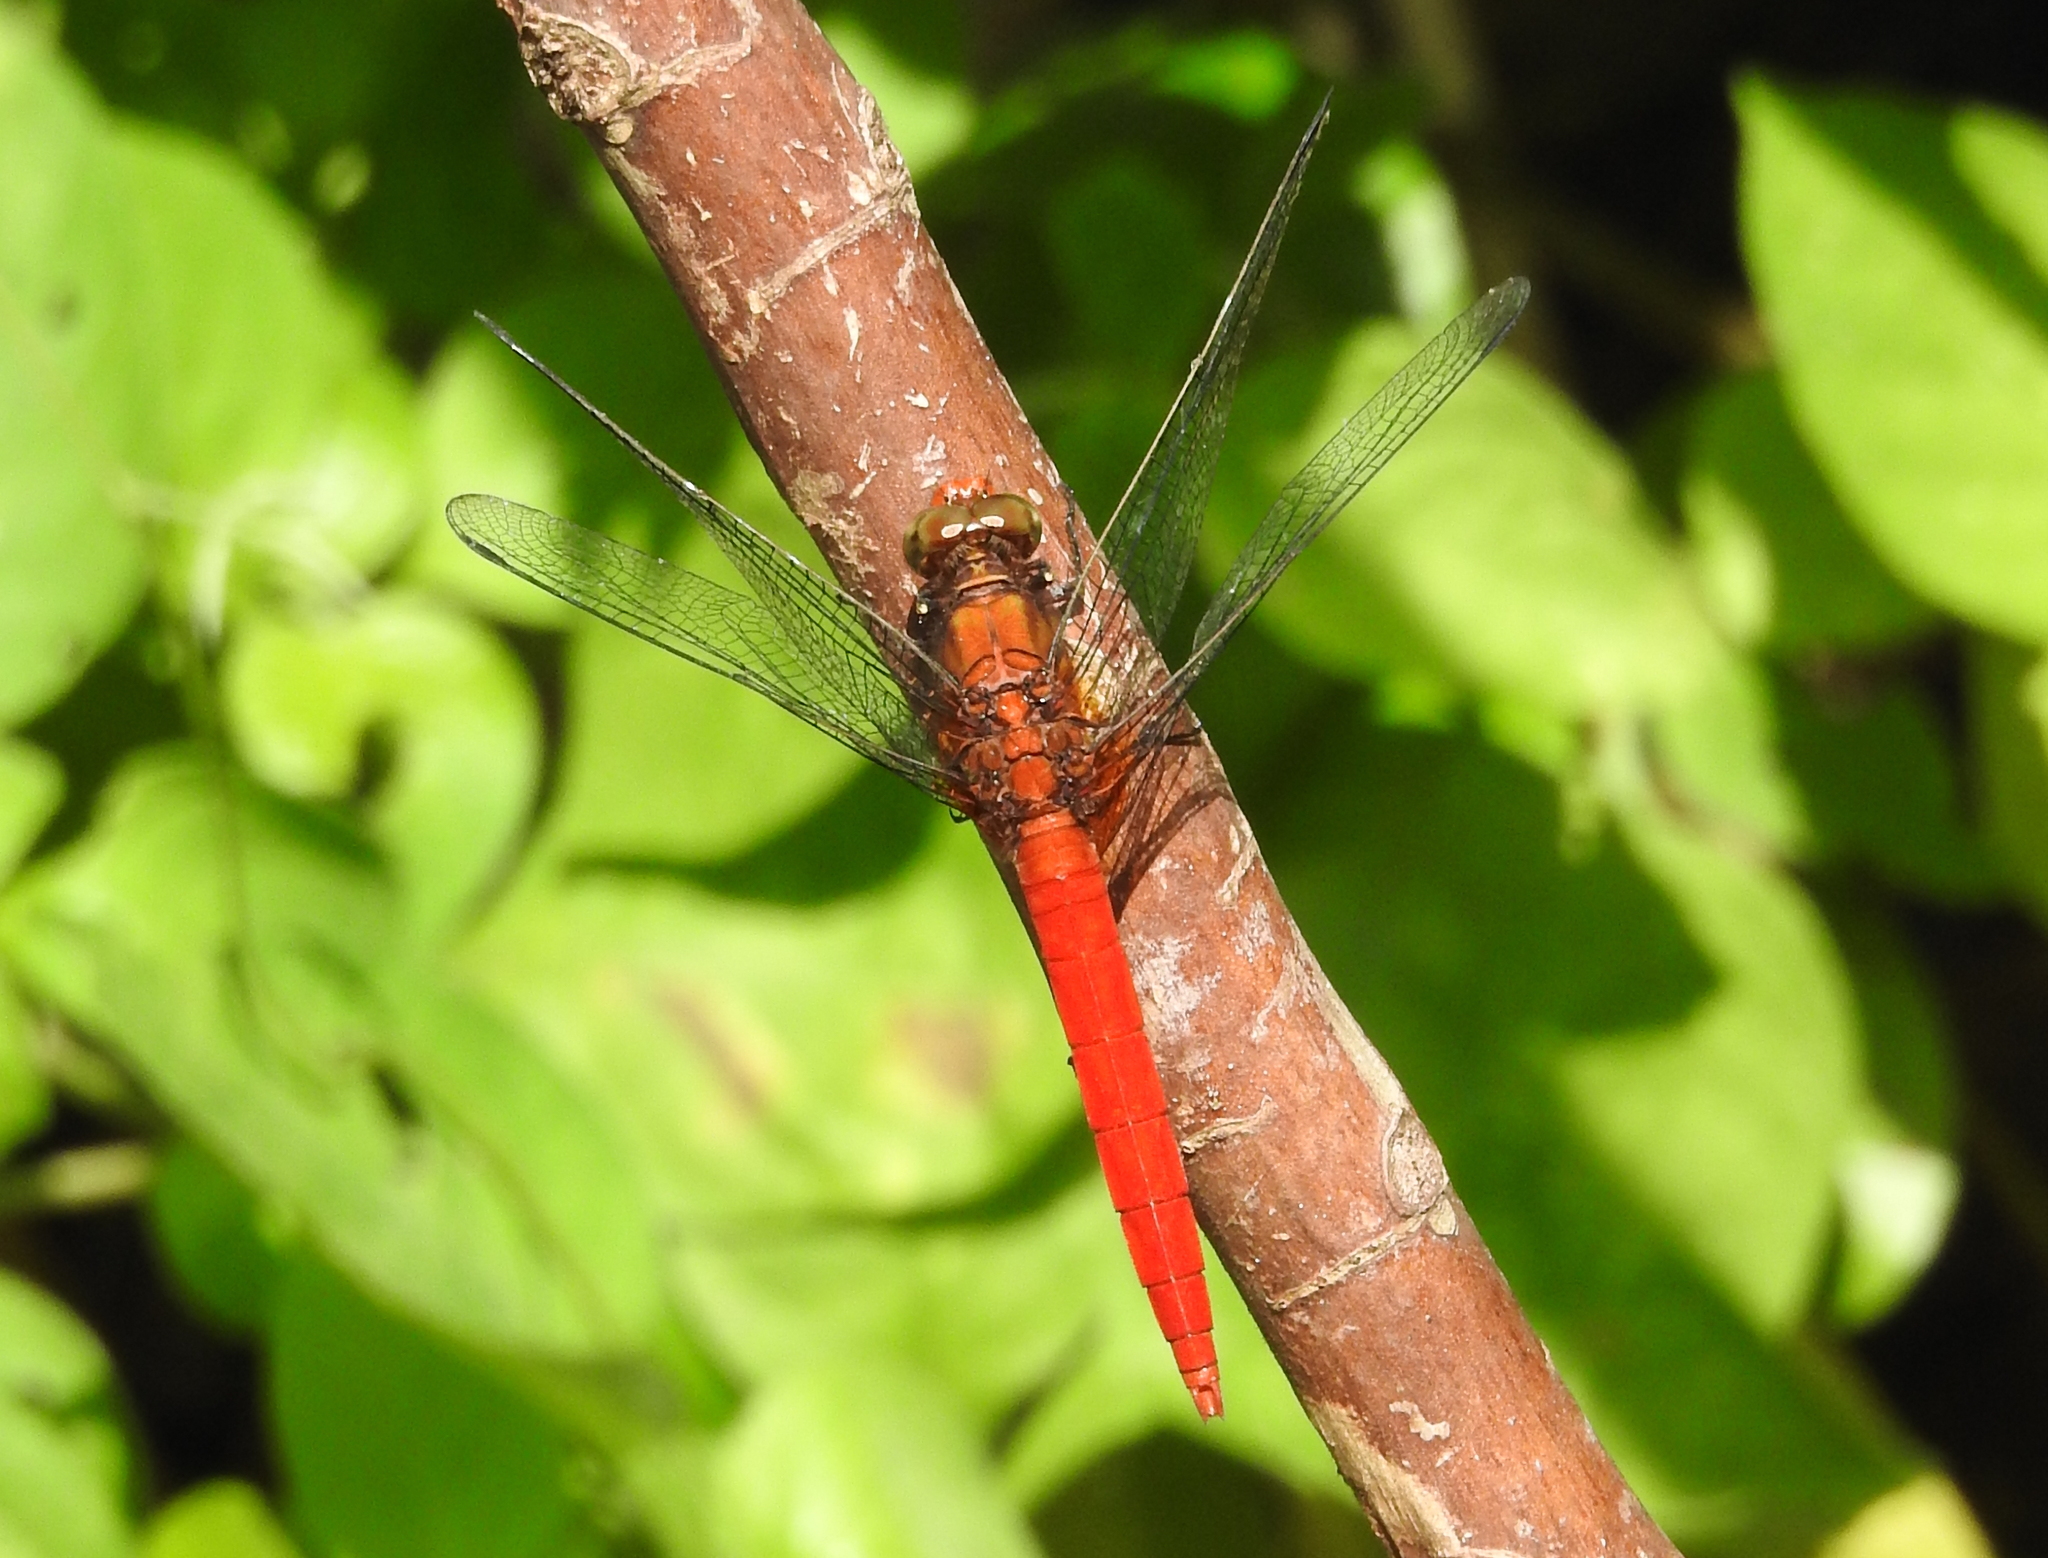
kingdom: Animalia
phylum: Arthropoda
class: Insecta
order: Odonata
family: Libellulidae
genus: Orthetrum
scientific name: Orthetrum testaceum
